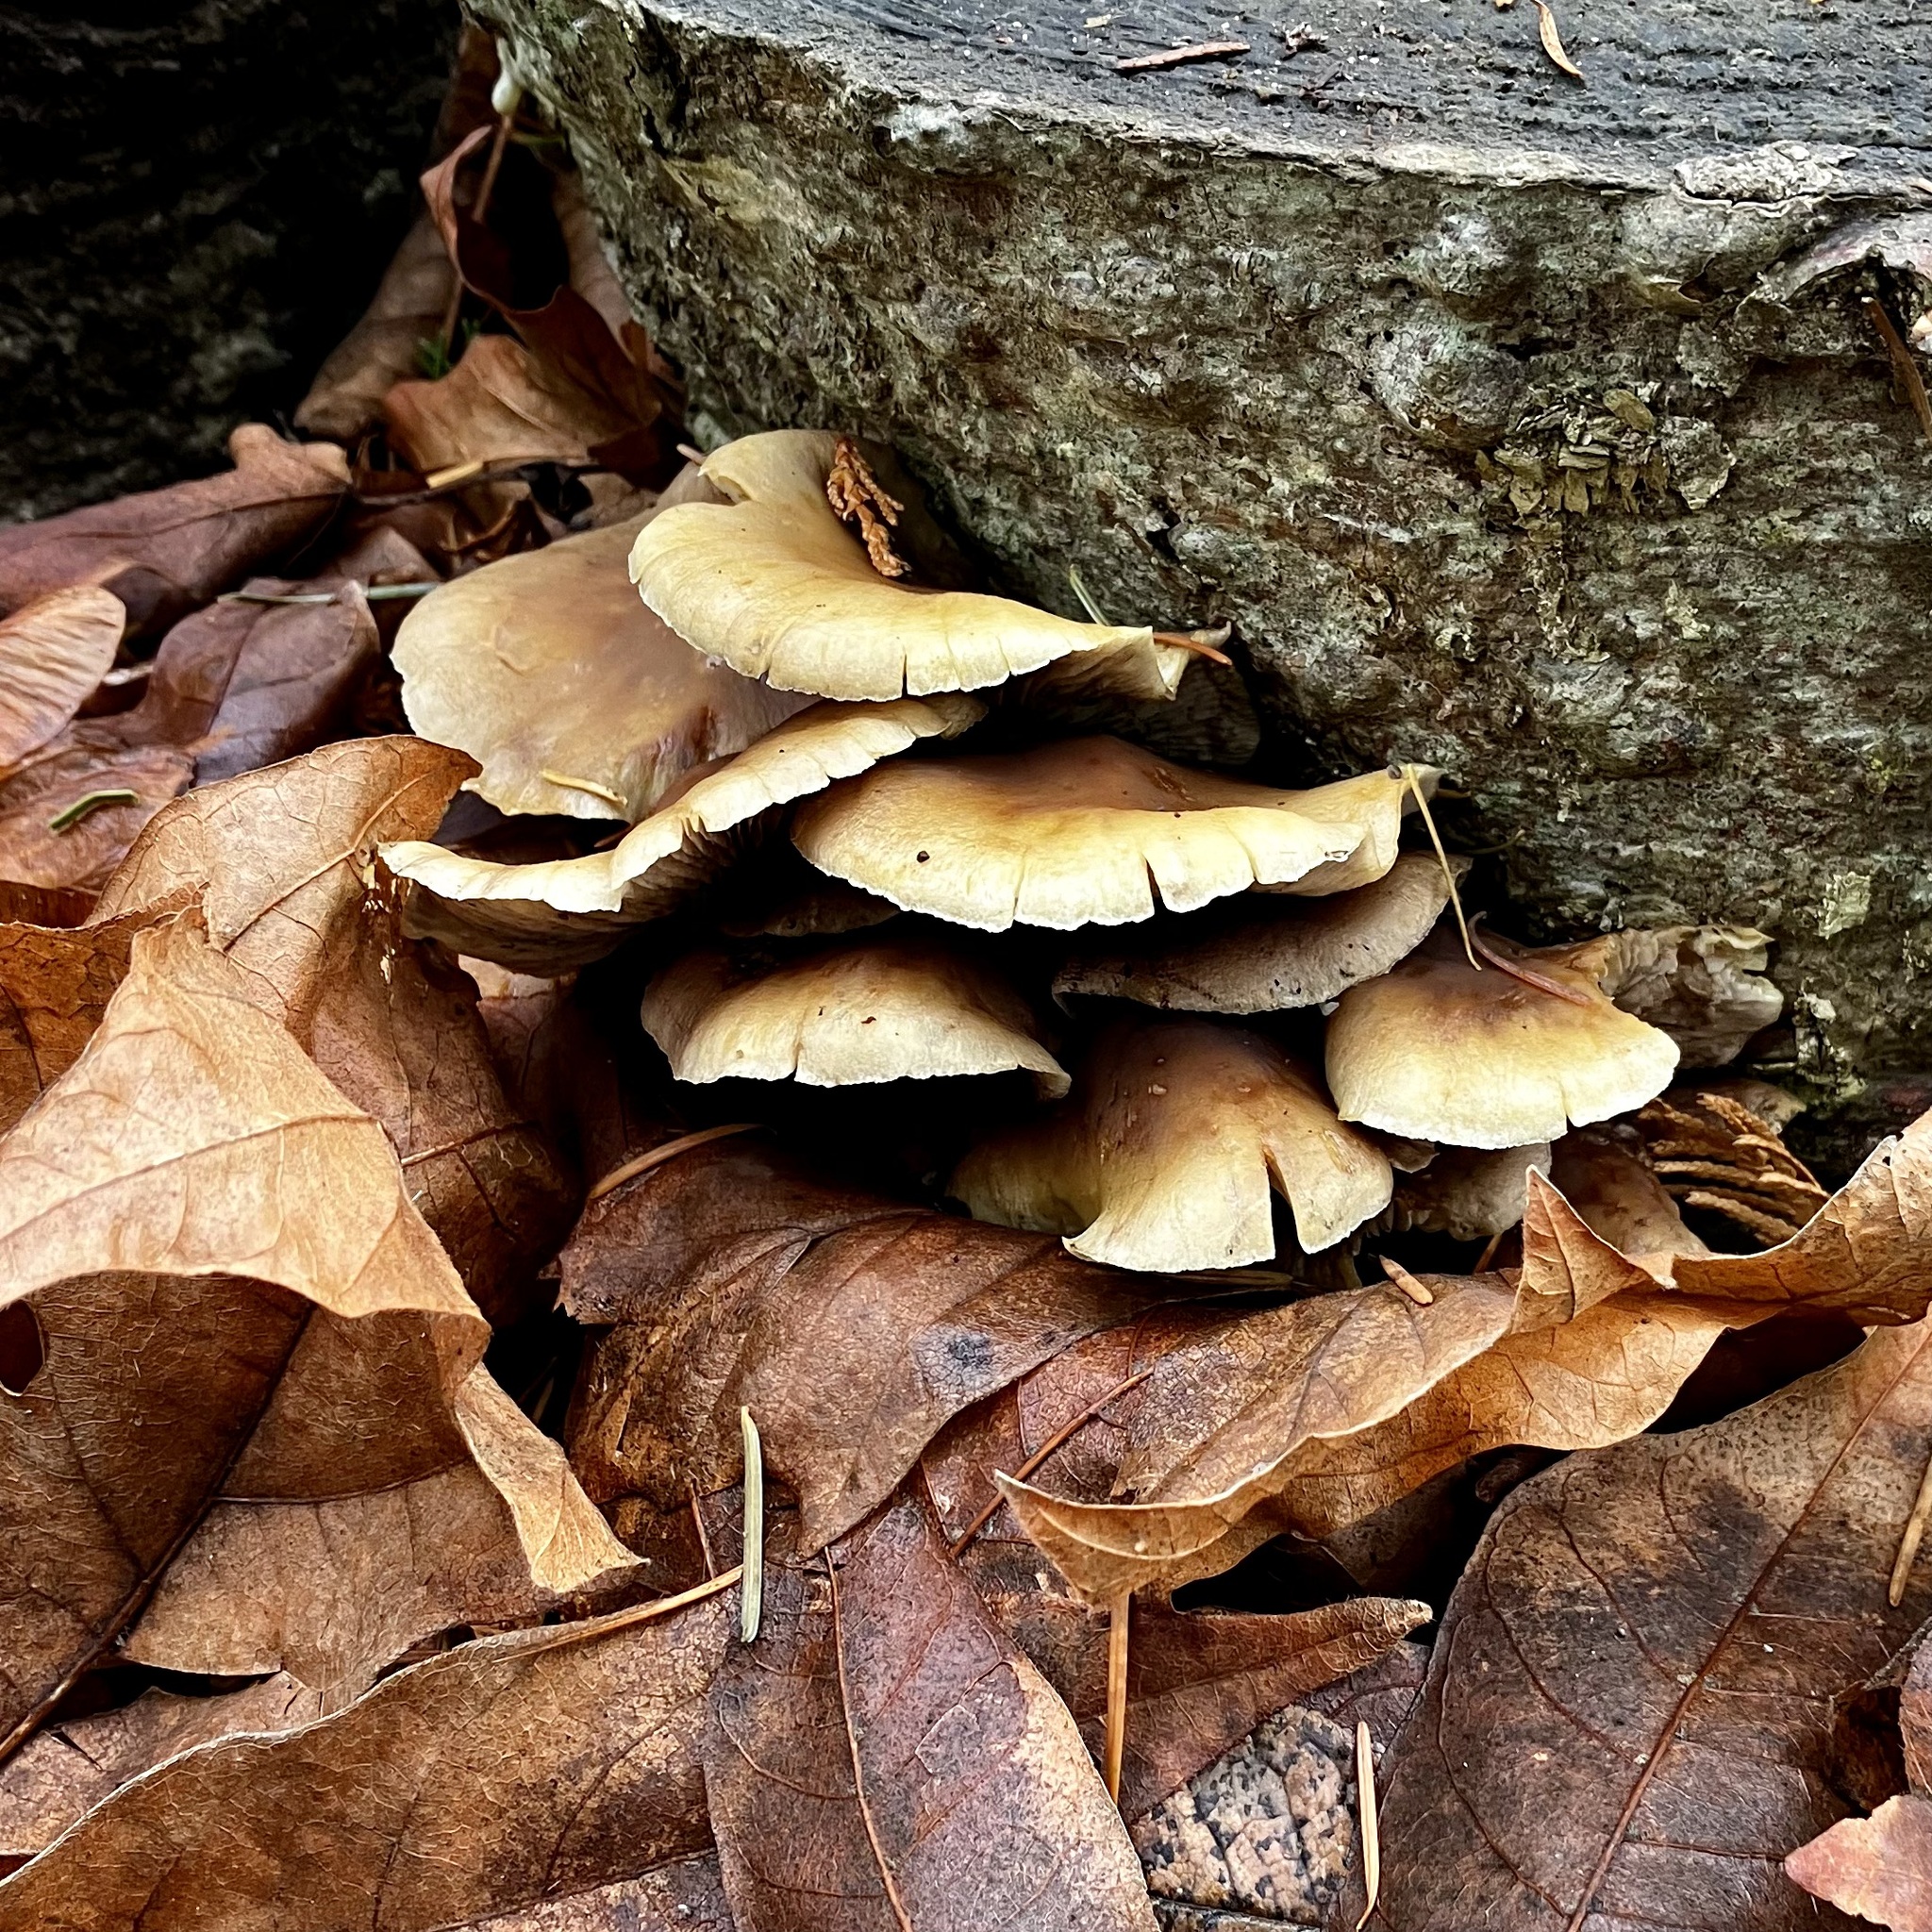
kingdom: Fungi
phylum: Basidiomycota
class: Agaricomycetes
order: Agaricales
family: Strophariaceae
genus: Hypholoma
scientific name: Hypholoma fasciculare
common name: Sulphur tuft
